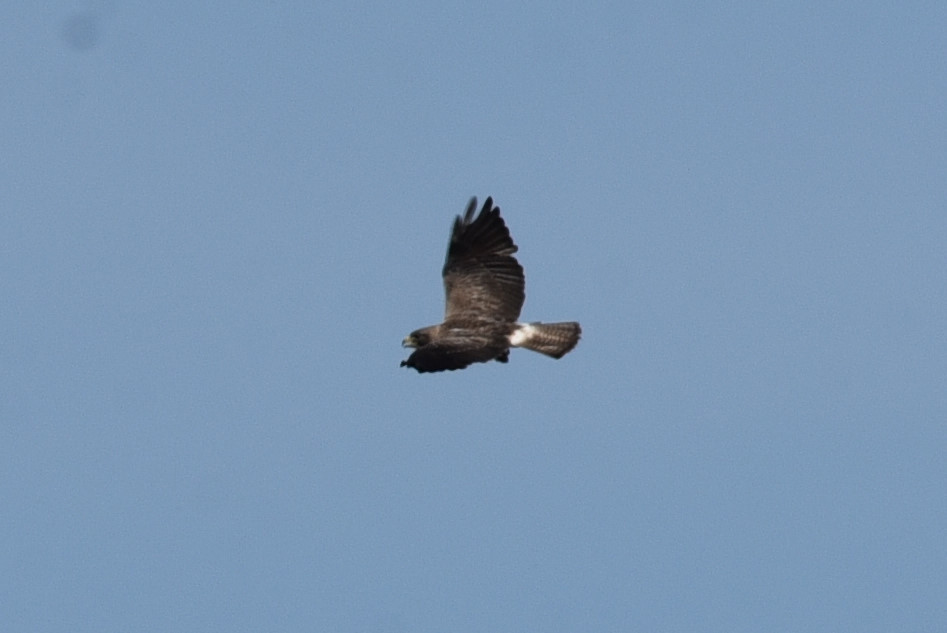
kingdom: Animalia
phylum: Chordata
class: Aves
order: Accipitriformes
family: Accipitridae
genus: Buteo
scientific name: Buteo swainsoni
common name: Swainson's hawk
